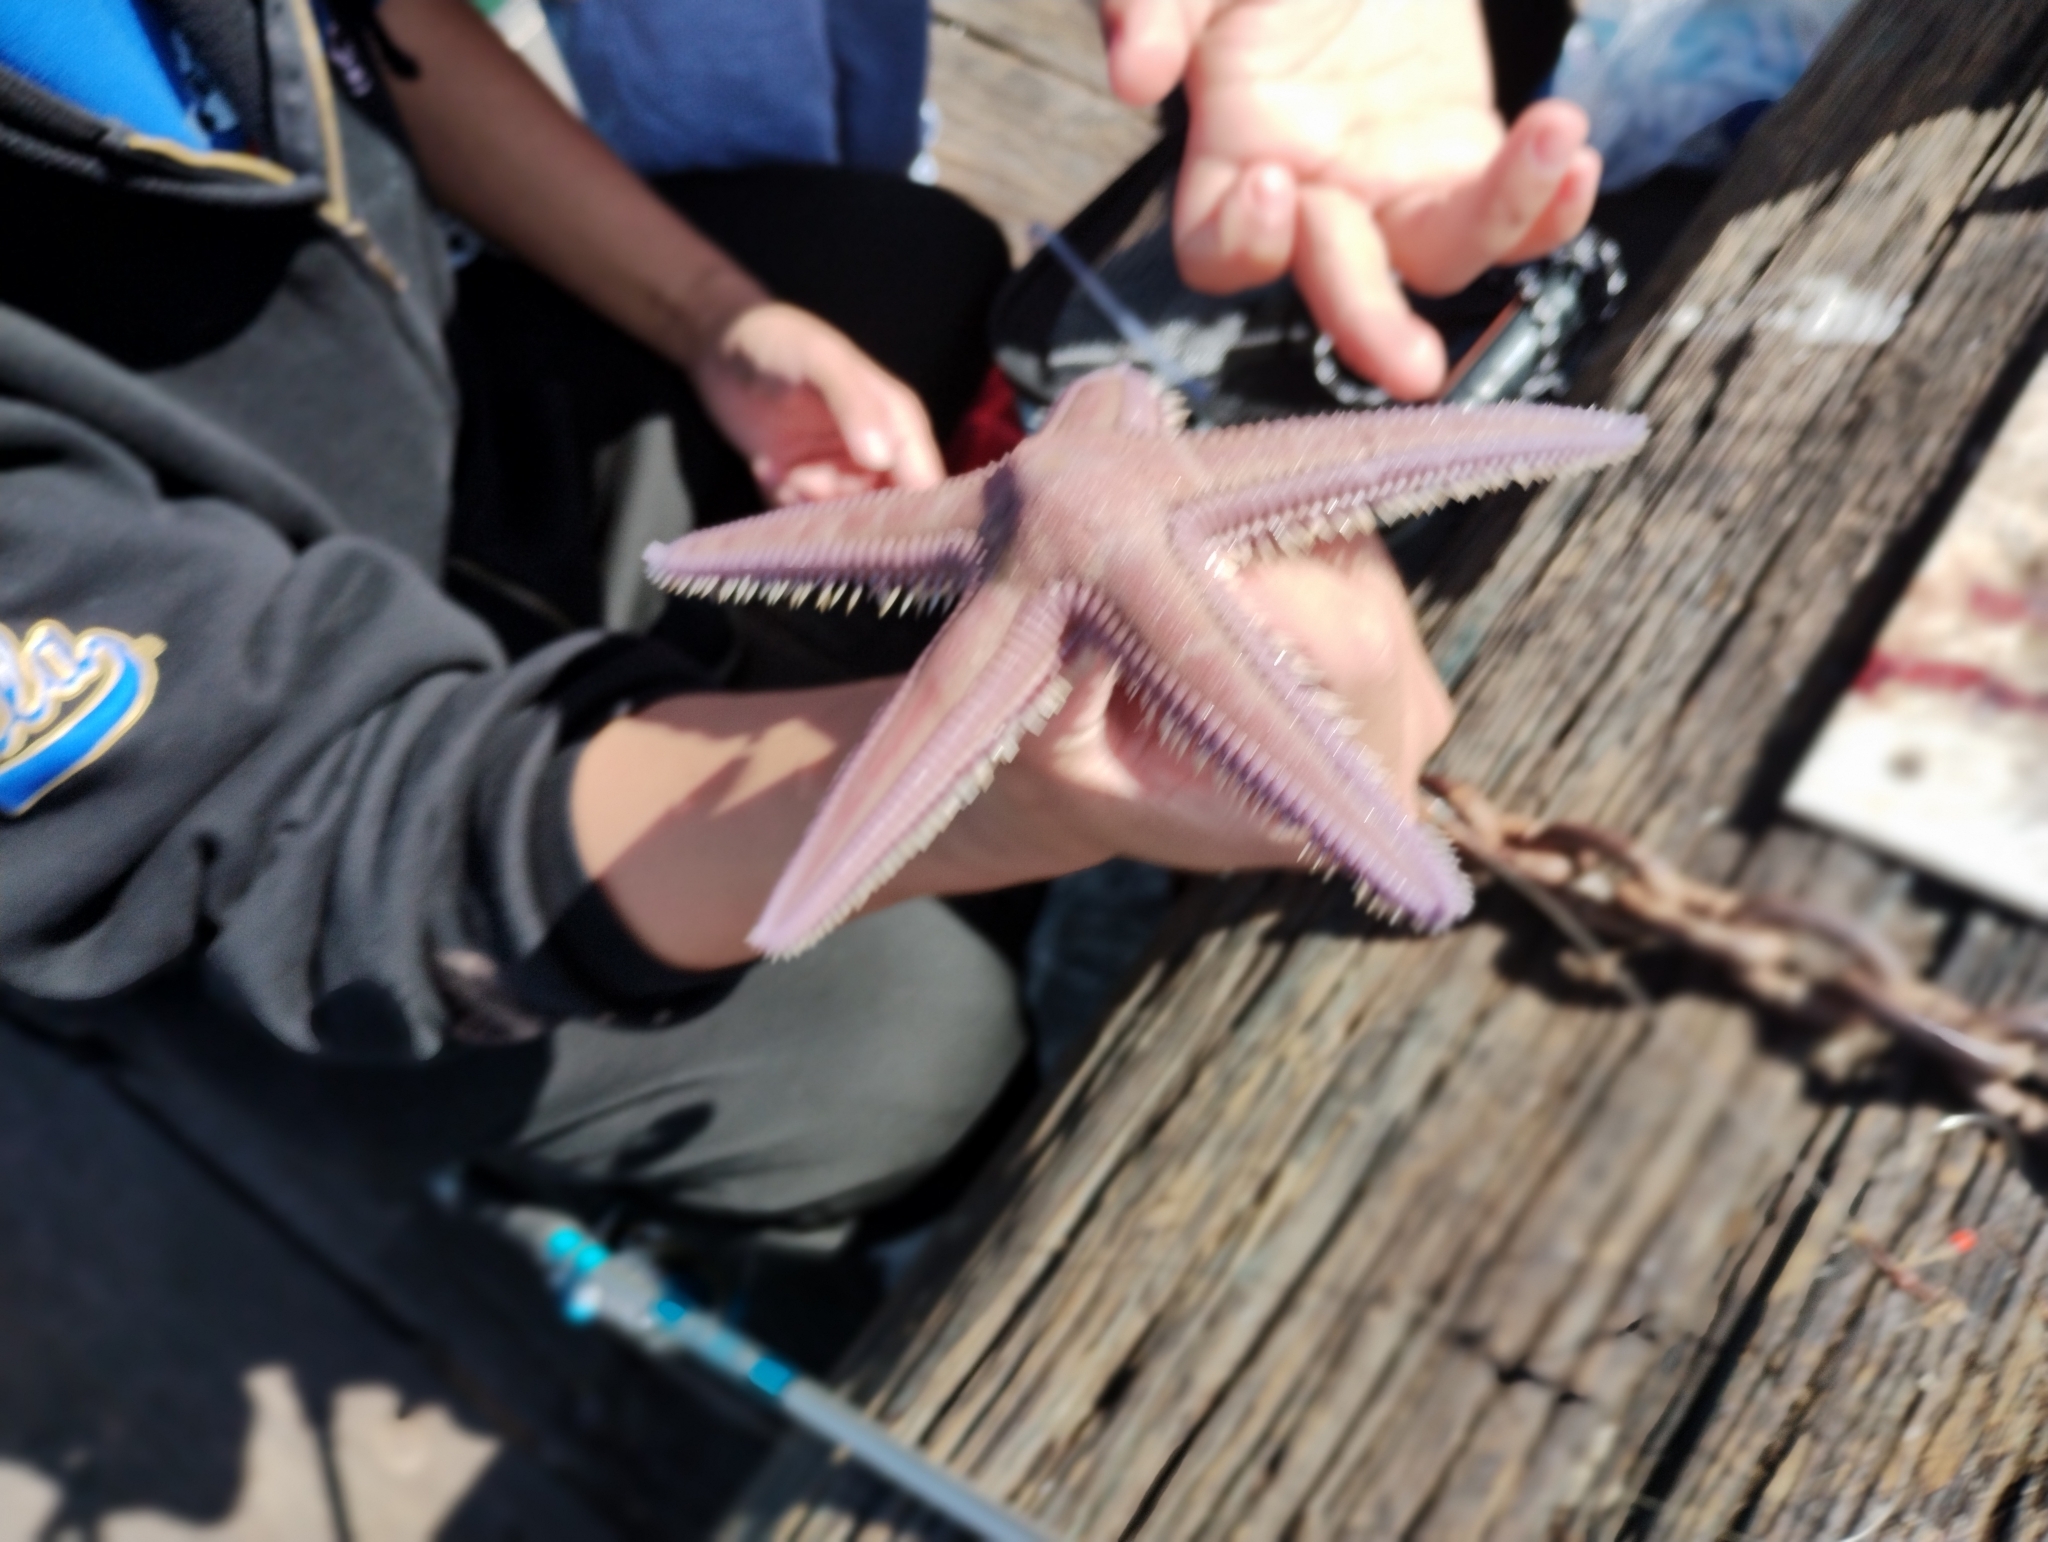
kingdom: Animalia
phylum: Echinodermata
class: Asteroidea
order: Paxillosida
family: Astropectinidae
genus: Astropecten
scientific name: Astropecten verrilli de
